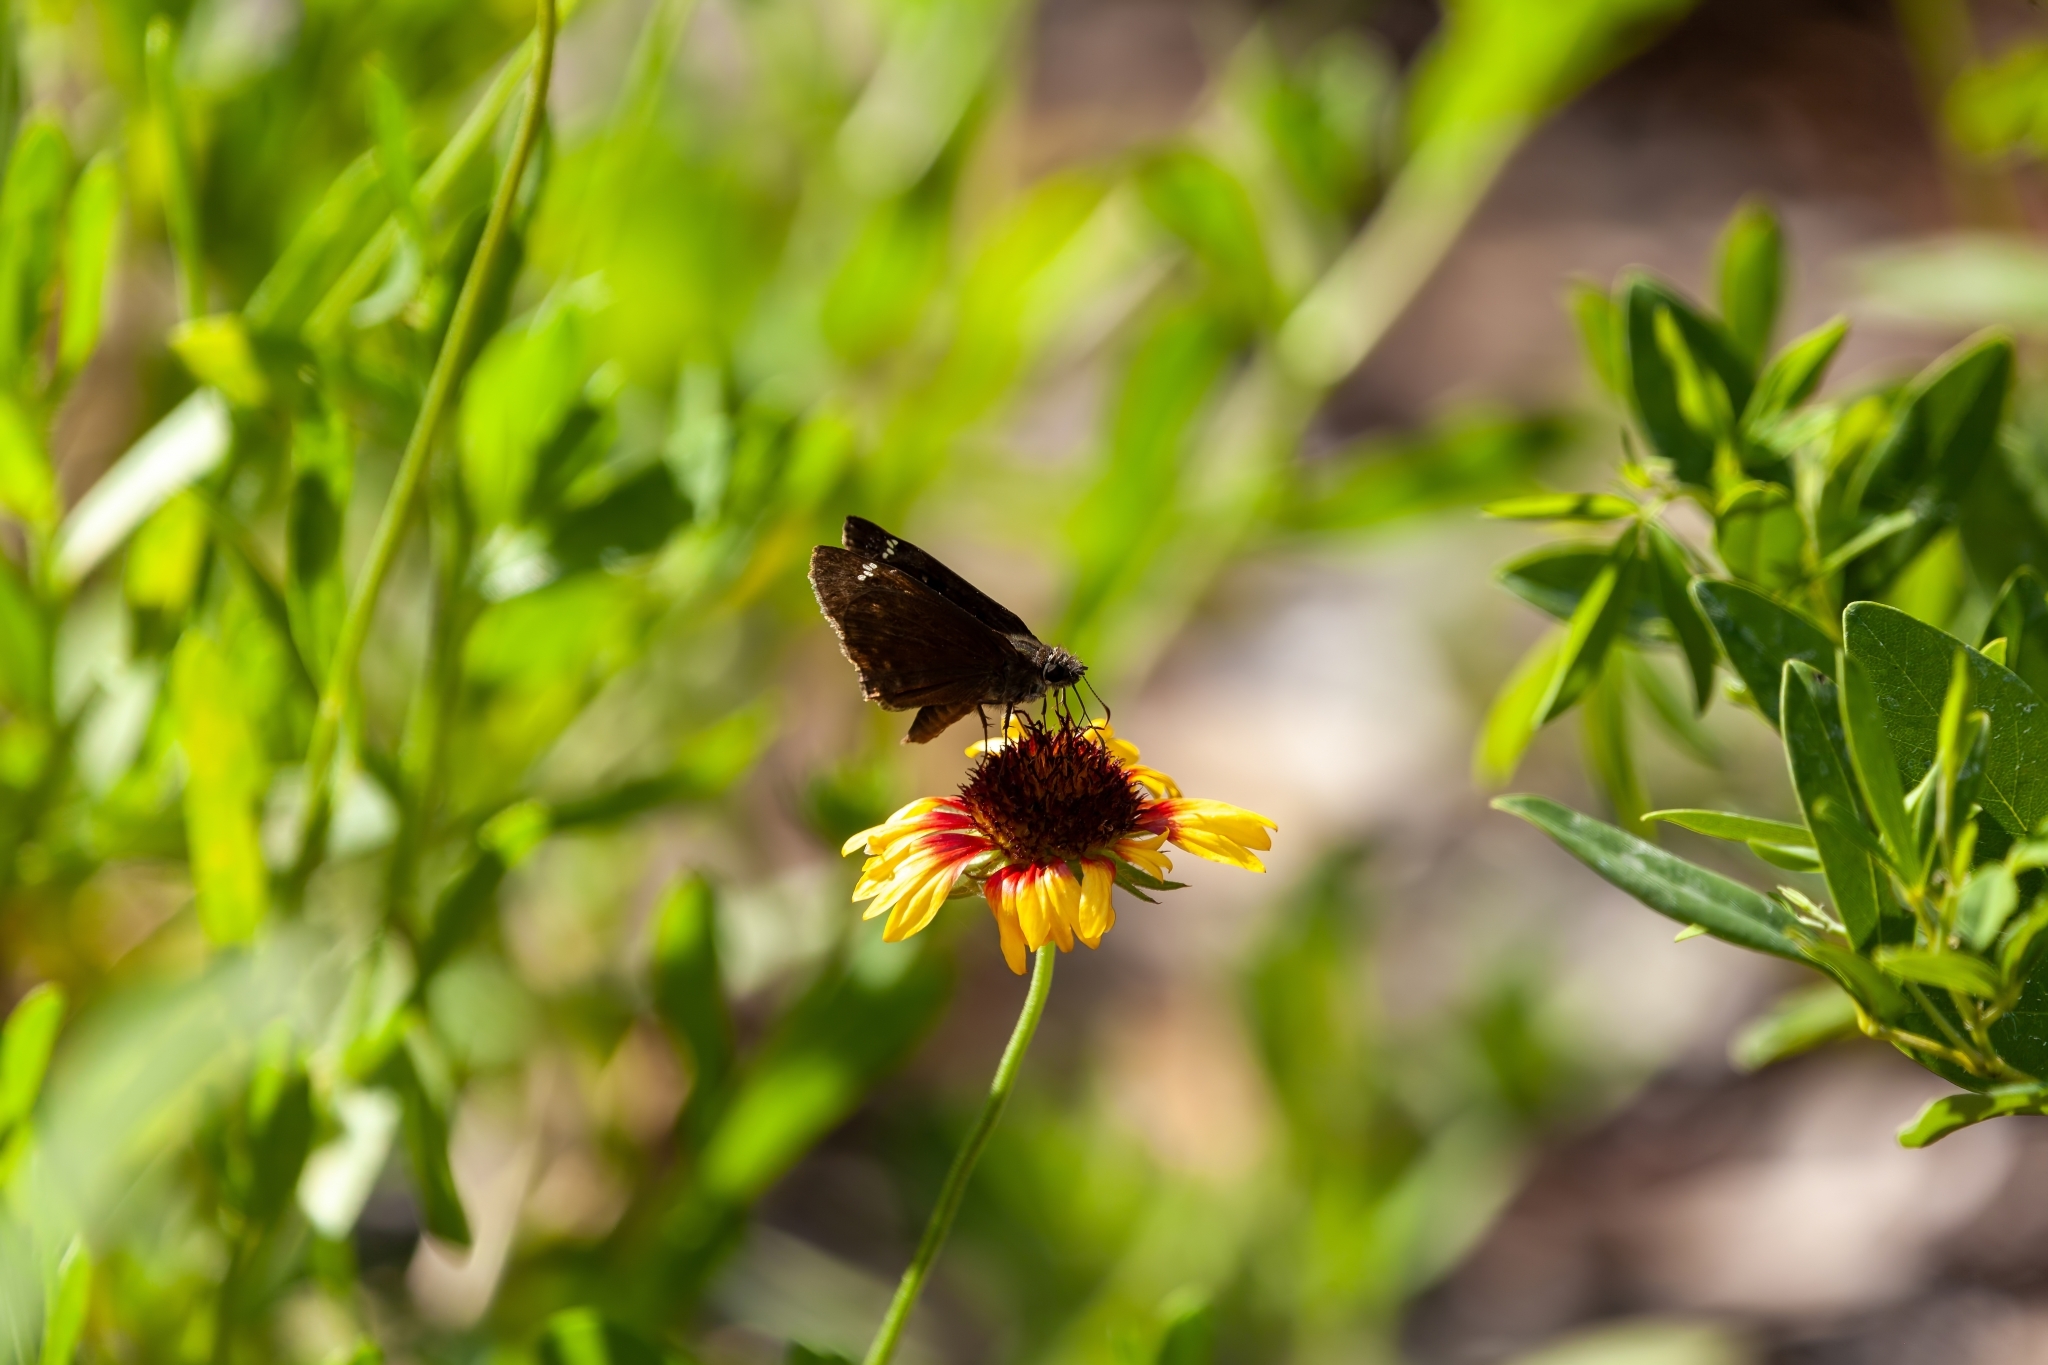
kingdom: Animalia
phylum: Arthropoda
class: Insecta
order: Lepidoptera
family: Hesperiidae
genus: Erynnis
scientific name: Erynnis horatius
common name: Horace's duskywing
